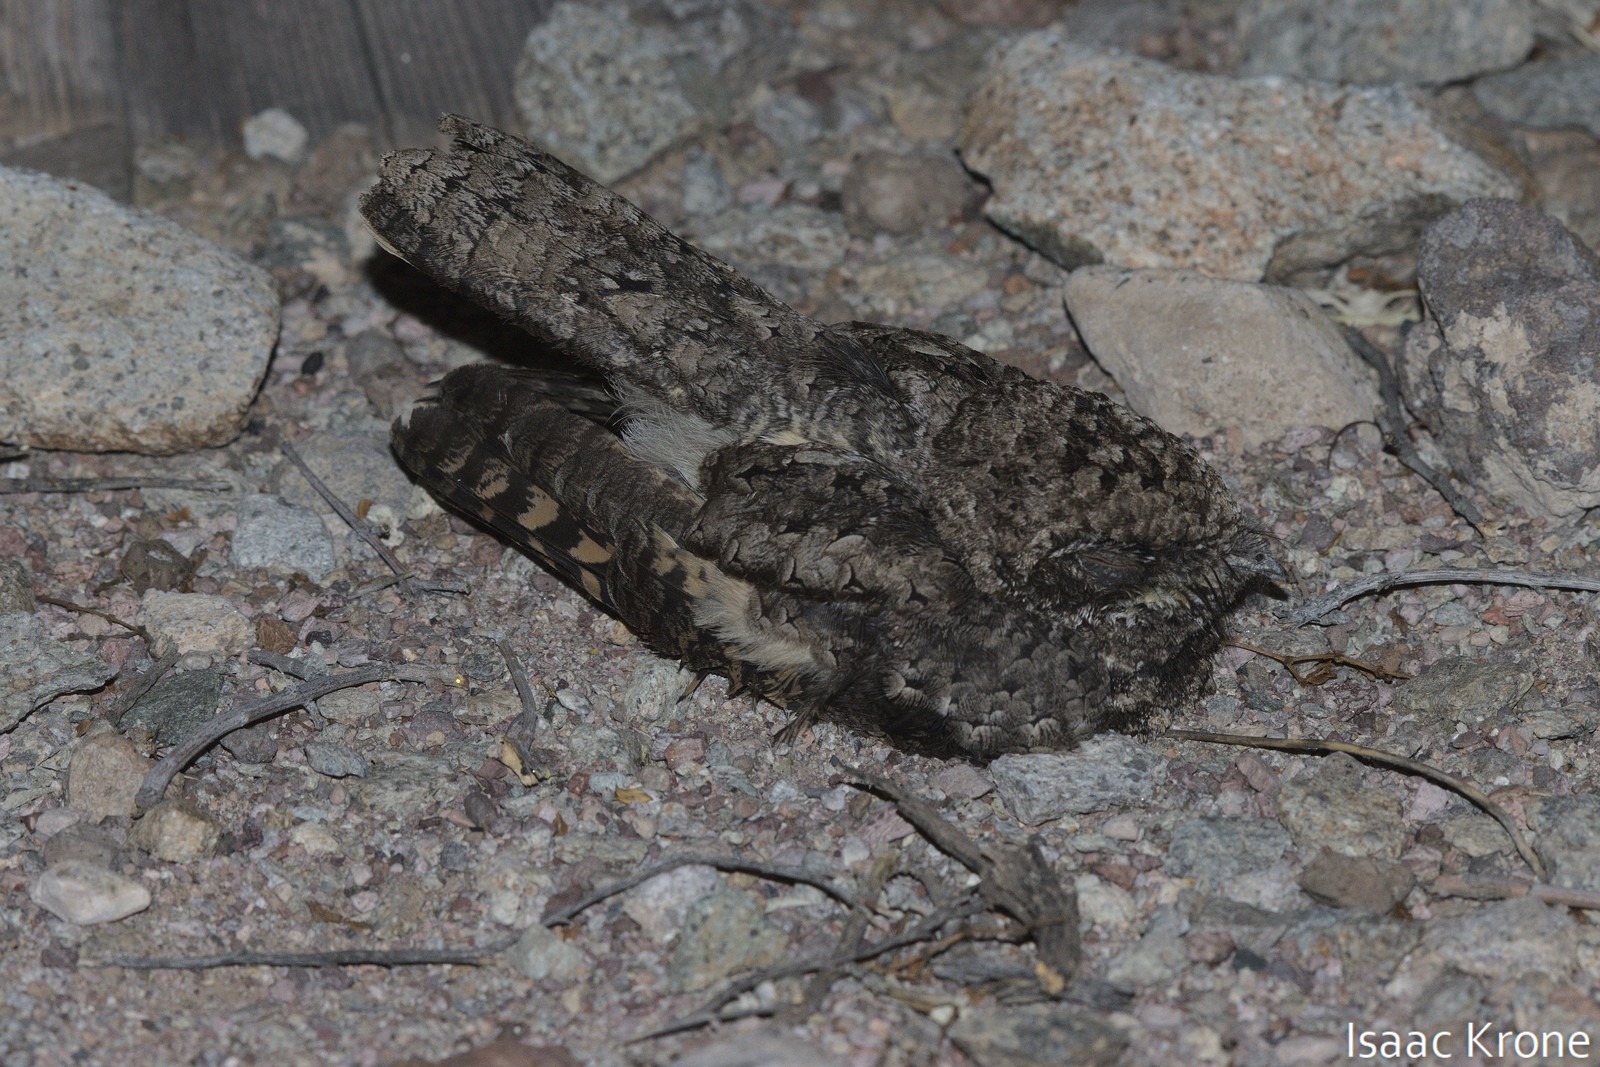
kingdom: Animalia
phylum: Chordata
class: Aves
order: Caprimulgiformes
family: Caprimulgidae
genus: Phalaenoptilus
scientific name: Phalaenoptilus nuttallii
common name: Common poorwill
